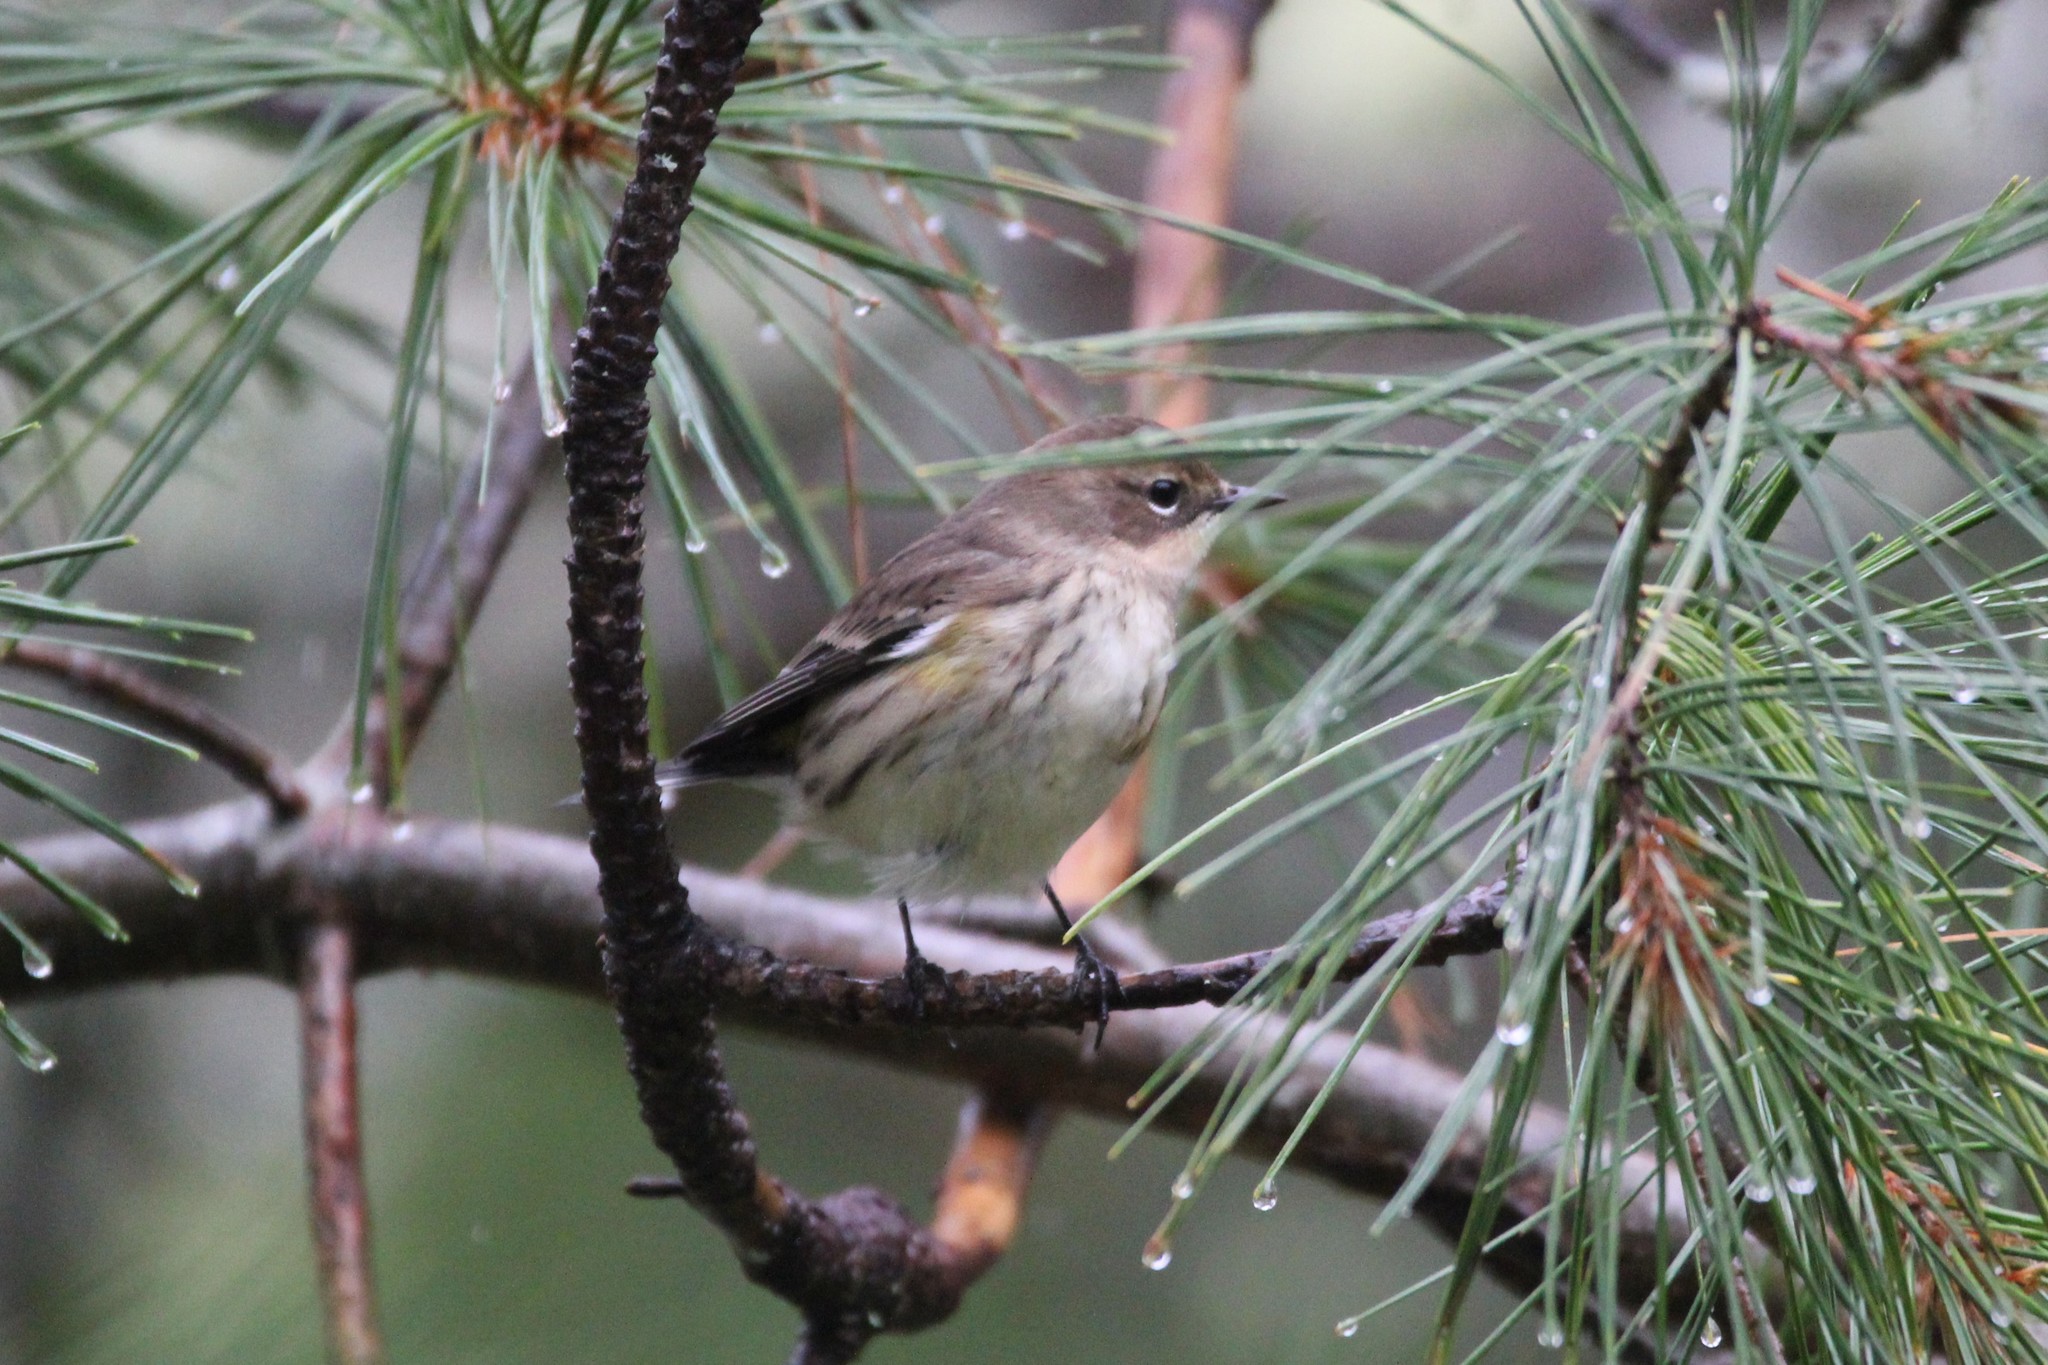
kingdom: Animalia
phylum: Chordata
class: Aves
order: Passeriformes
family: Parulidae
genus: Setophaga
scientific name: Setophaga coronata
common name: Myrtle warbler
